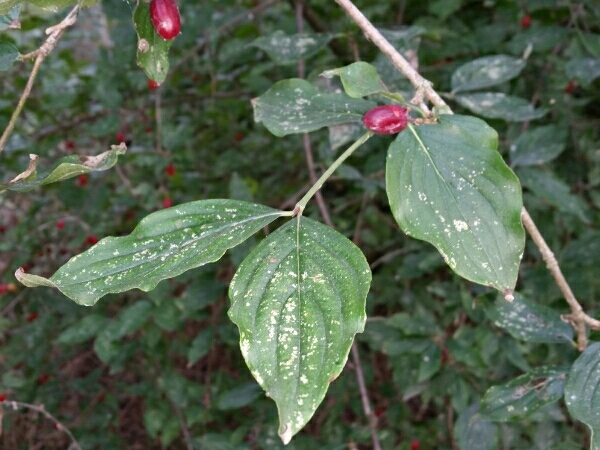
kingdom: Plantae
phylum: Tracheophyta
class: Magnoliopsida
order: Cornales
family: Cornaceae
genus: Cornus
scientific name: Cornus mas
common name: Cornelian-cherry
